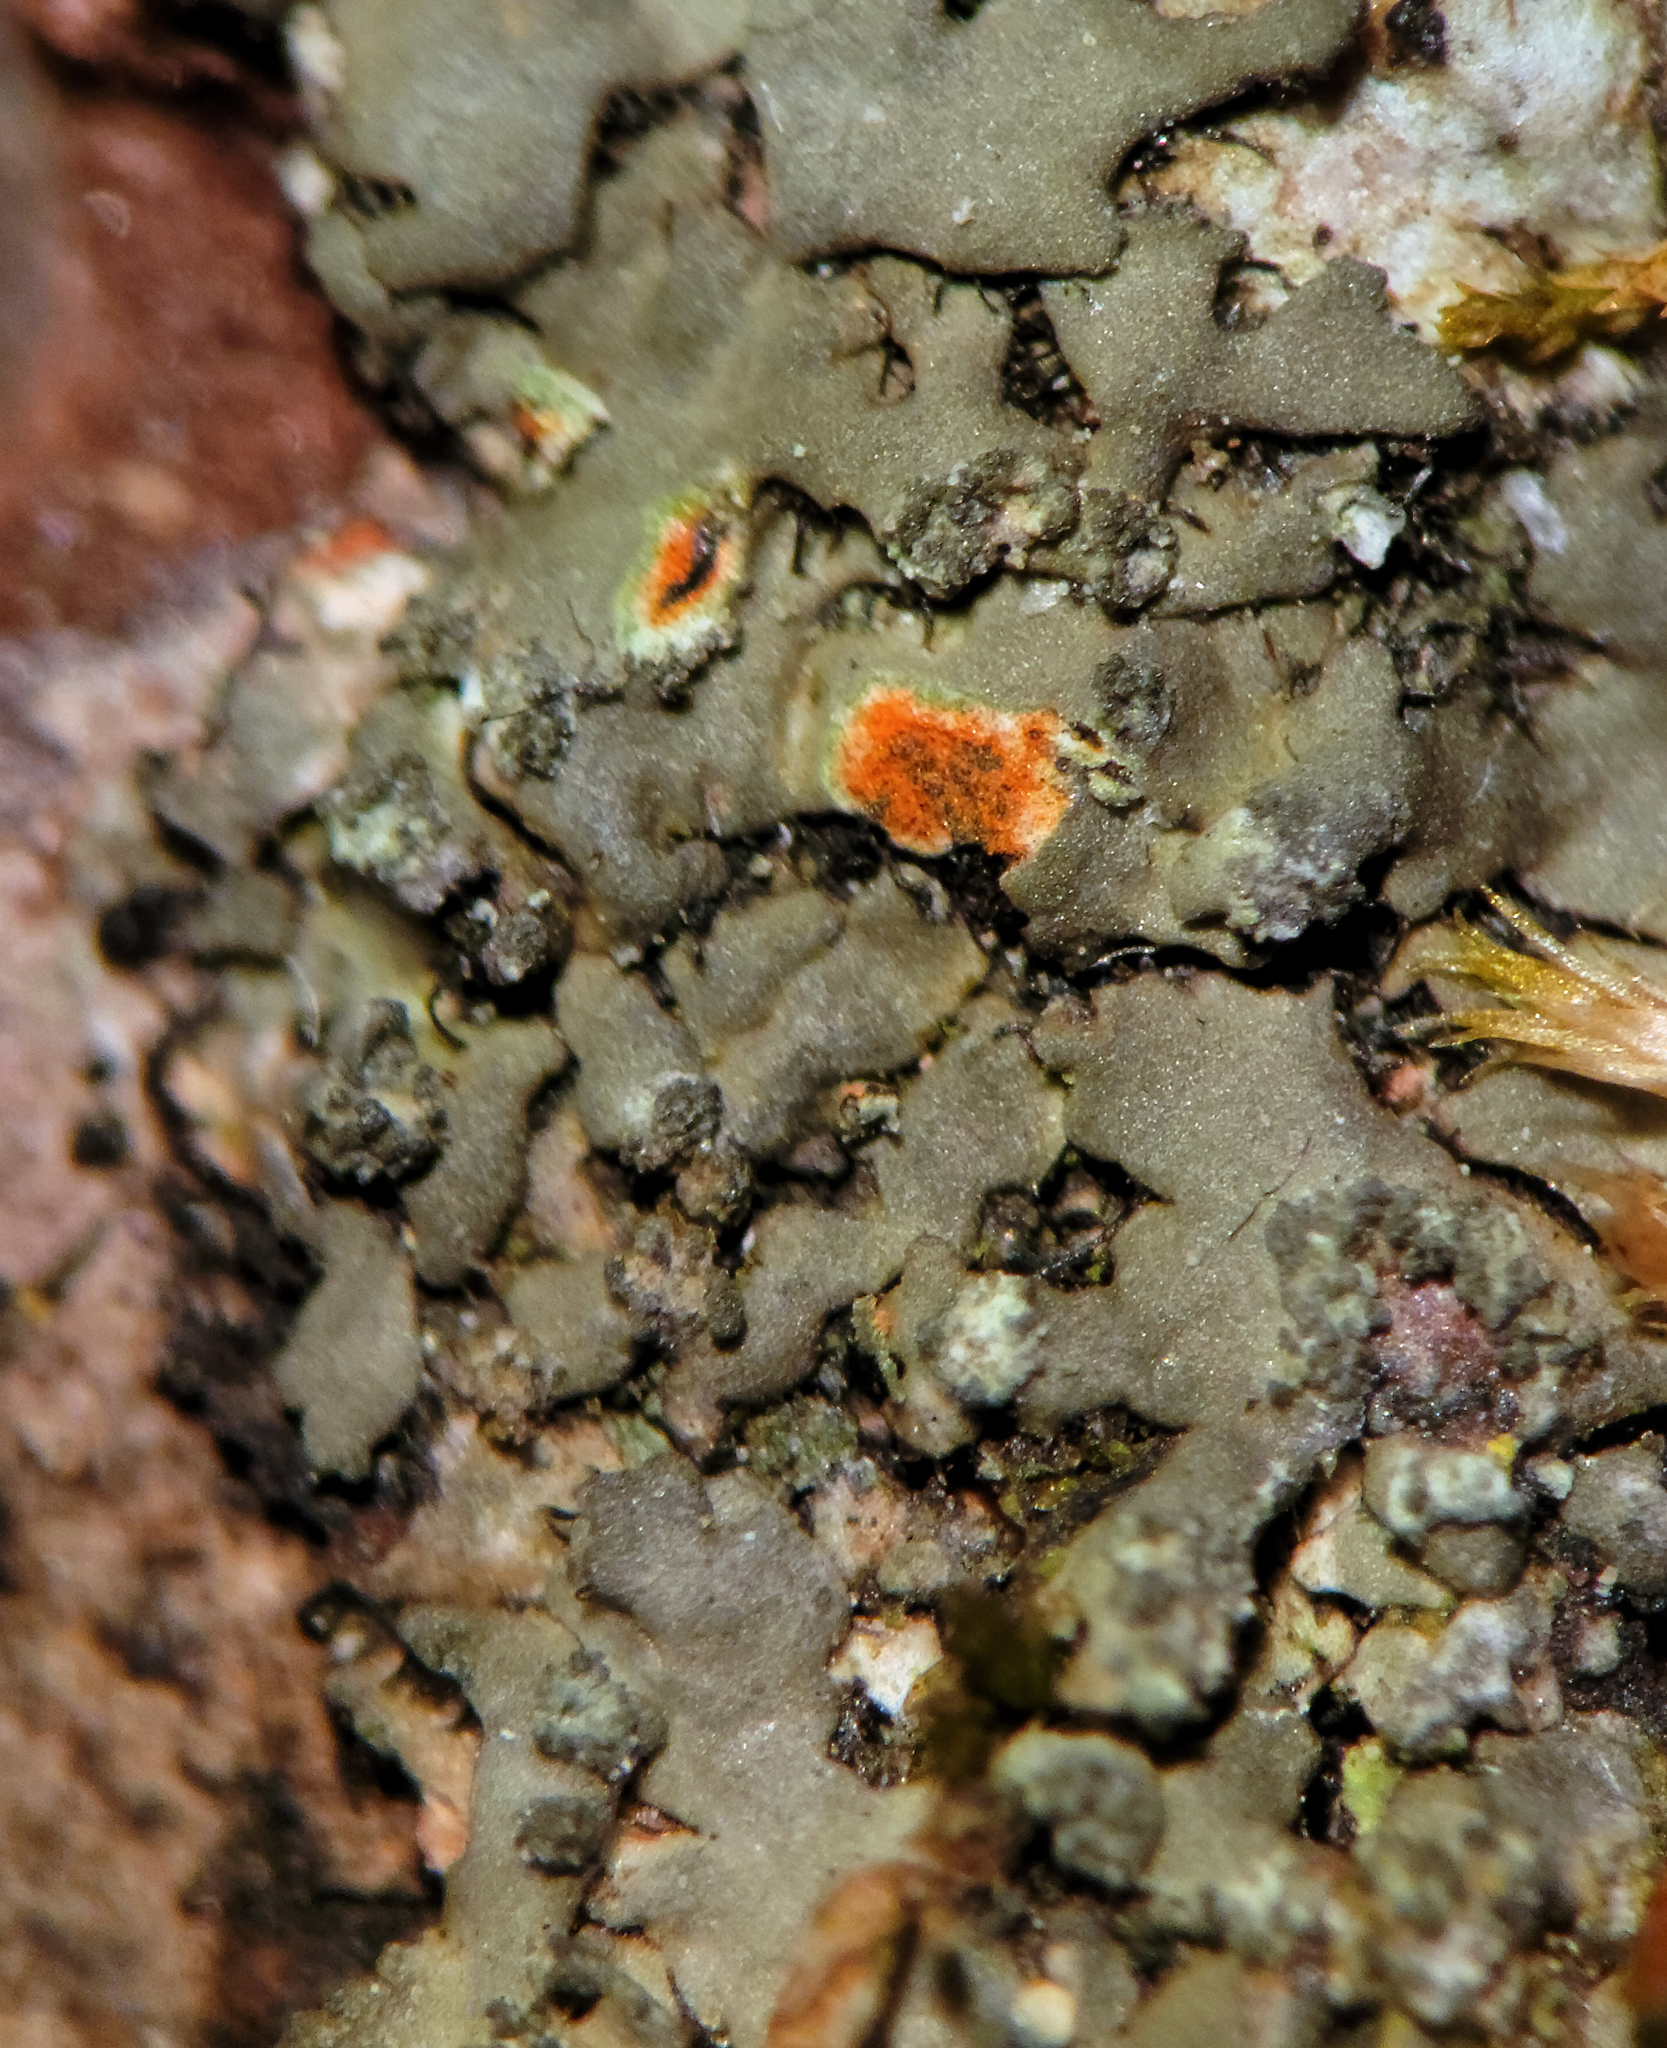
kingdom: Fungi
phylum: Ascomycota
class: Lecanoromycetes
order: Caliciales
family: Physciaceae
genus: Phaeophyscia
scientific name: Phaeophyscia rubropulchra
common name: Orange-cored shadow lichen
